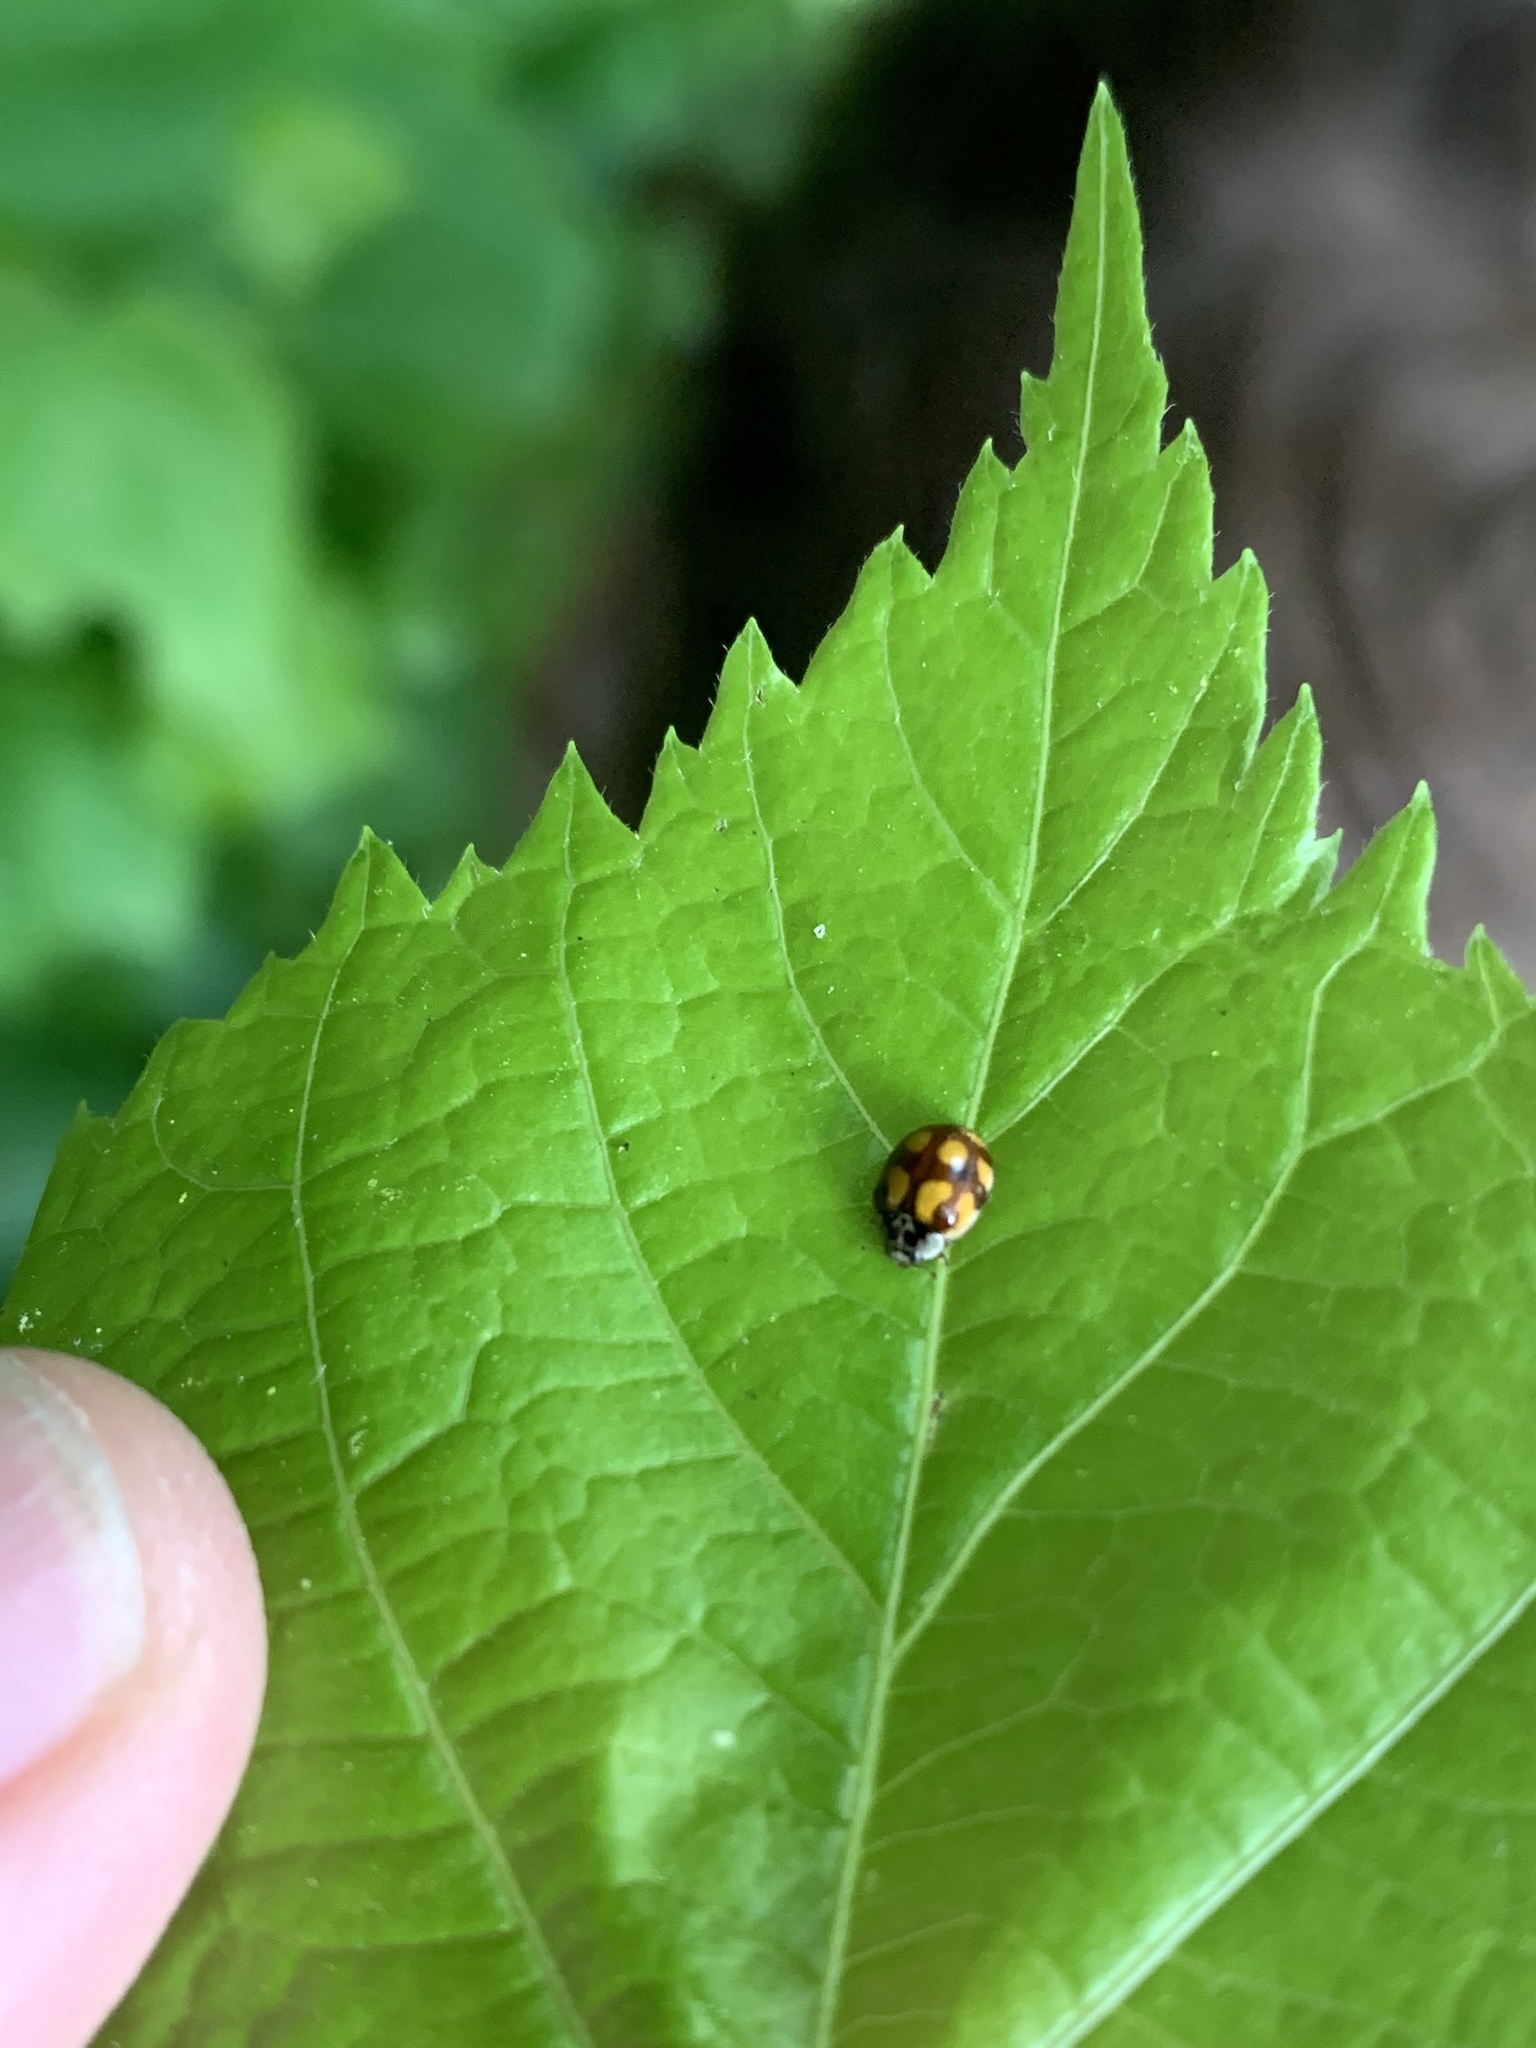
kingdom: Animalia
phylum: Arthropoda
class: Insecta
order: Coleoptera
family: Coccinellidae
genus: Adalia
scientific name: Adalia decempunctata
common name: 10-spot ladybird
